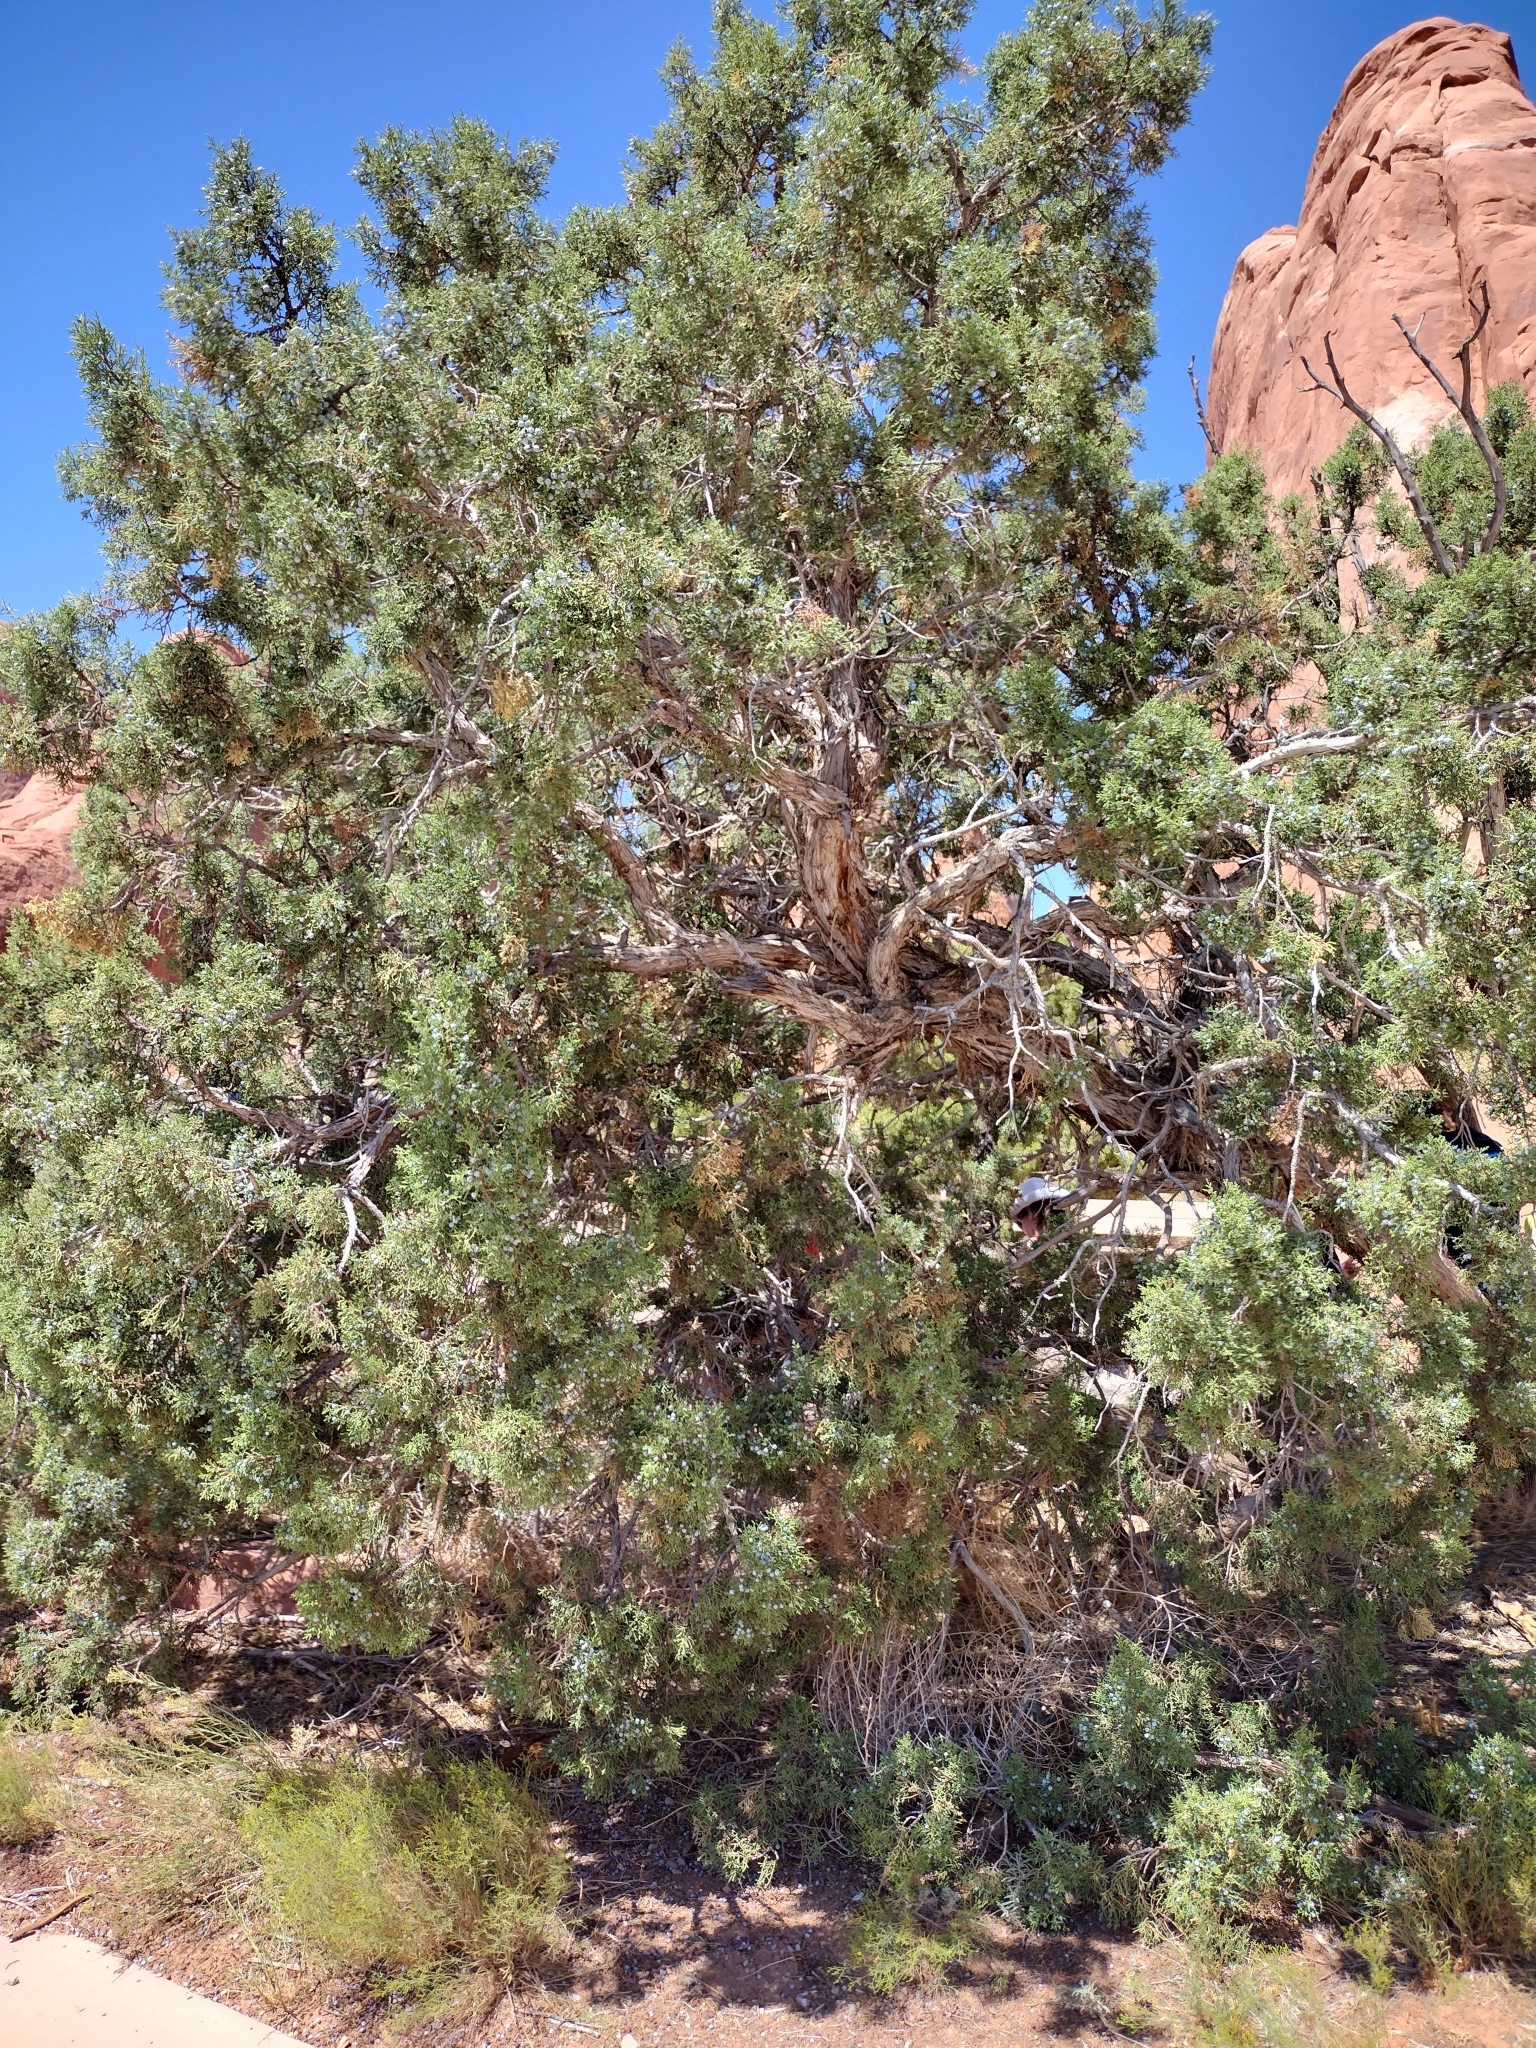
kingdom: Plantae
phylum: Tracheophyta
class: Pinopsida
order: Pinales
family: Cupressaceae
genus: Juniperus
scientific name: Juniperus osteosperma
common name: Utah juniper
